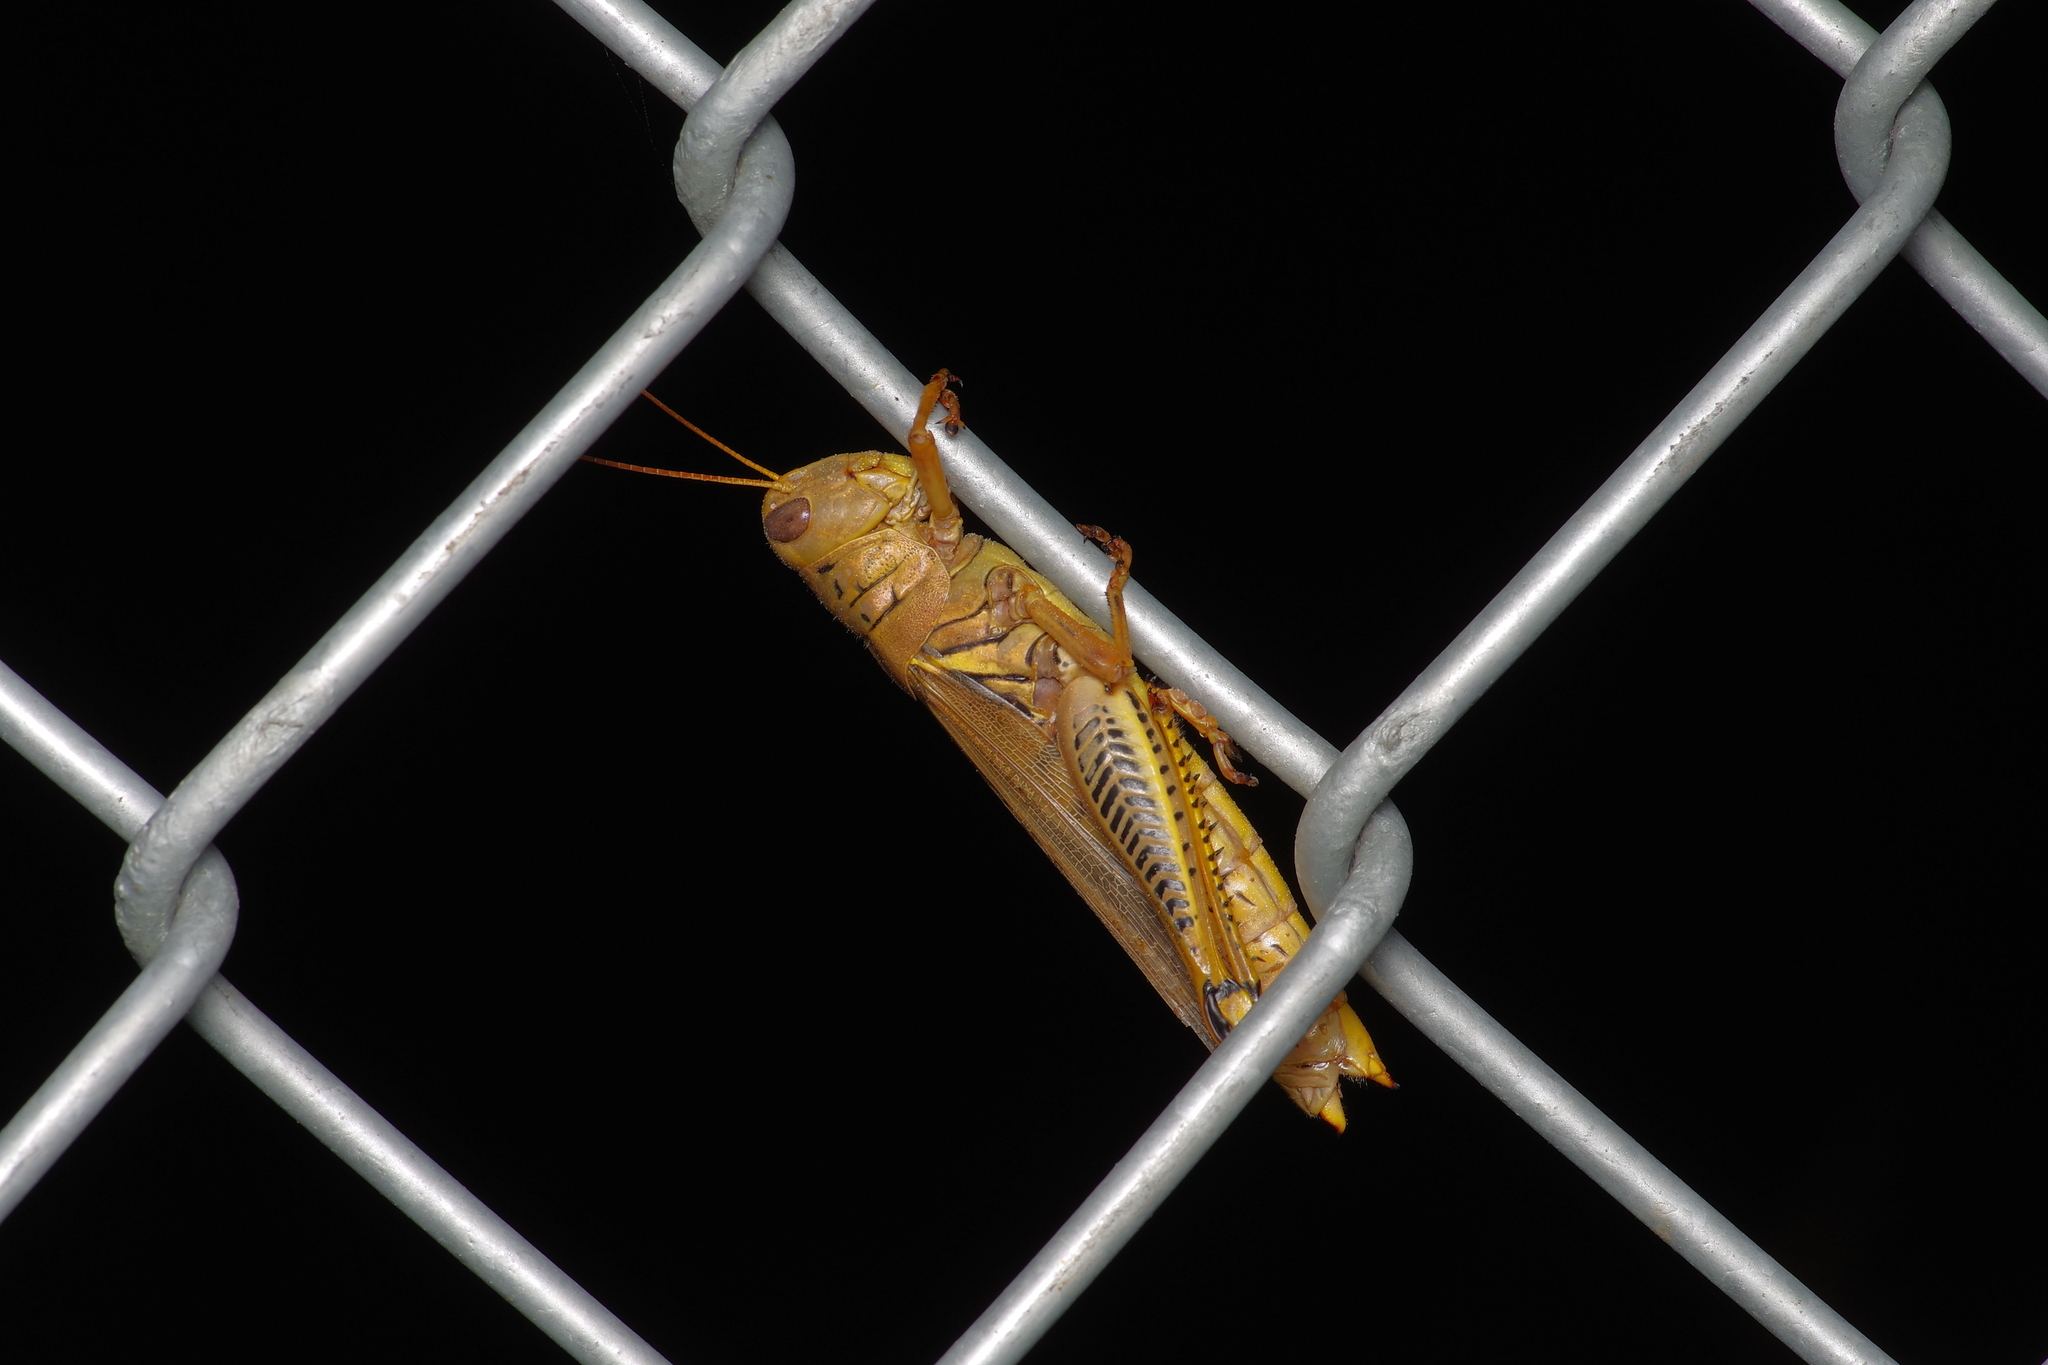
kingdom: Animalia
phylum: Arthropoda
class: Insecta
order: Orthoptera
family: Acrididae
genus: Melanoplus
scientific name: Melanoplus differentialis
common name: Differential grasshopper
